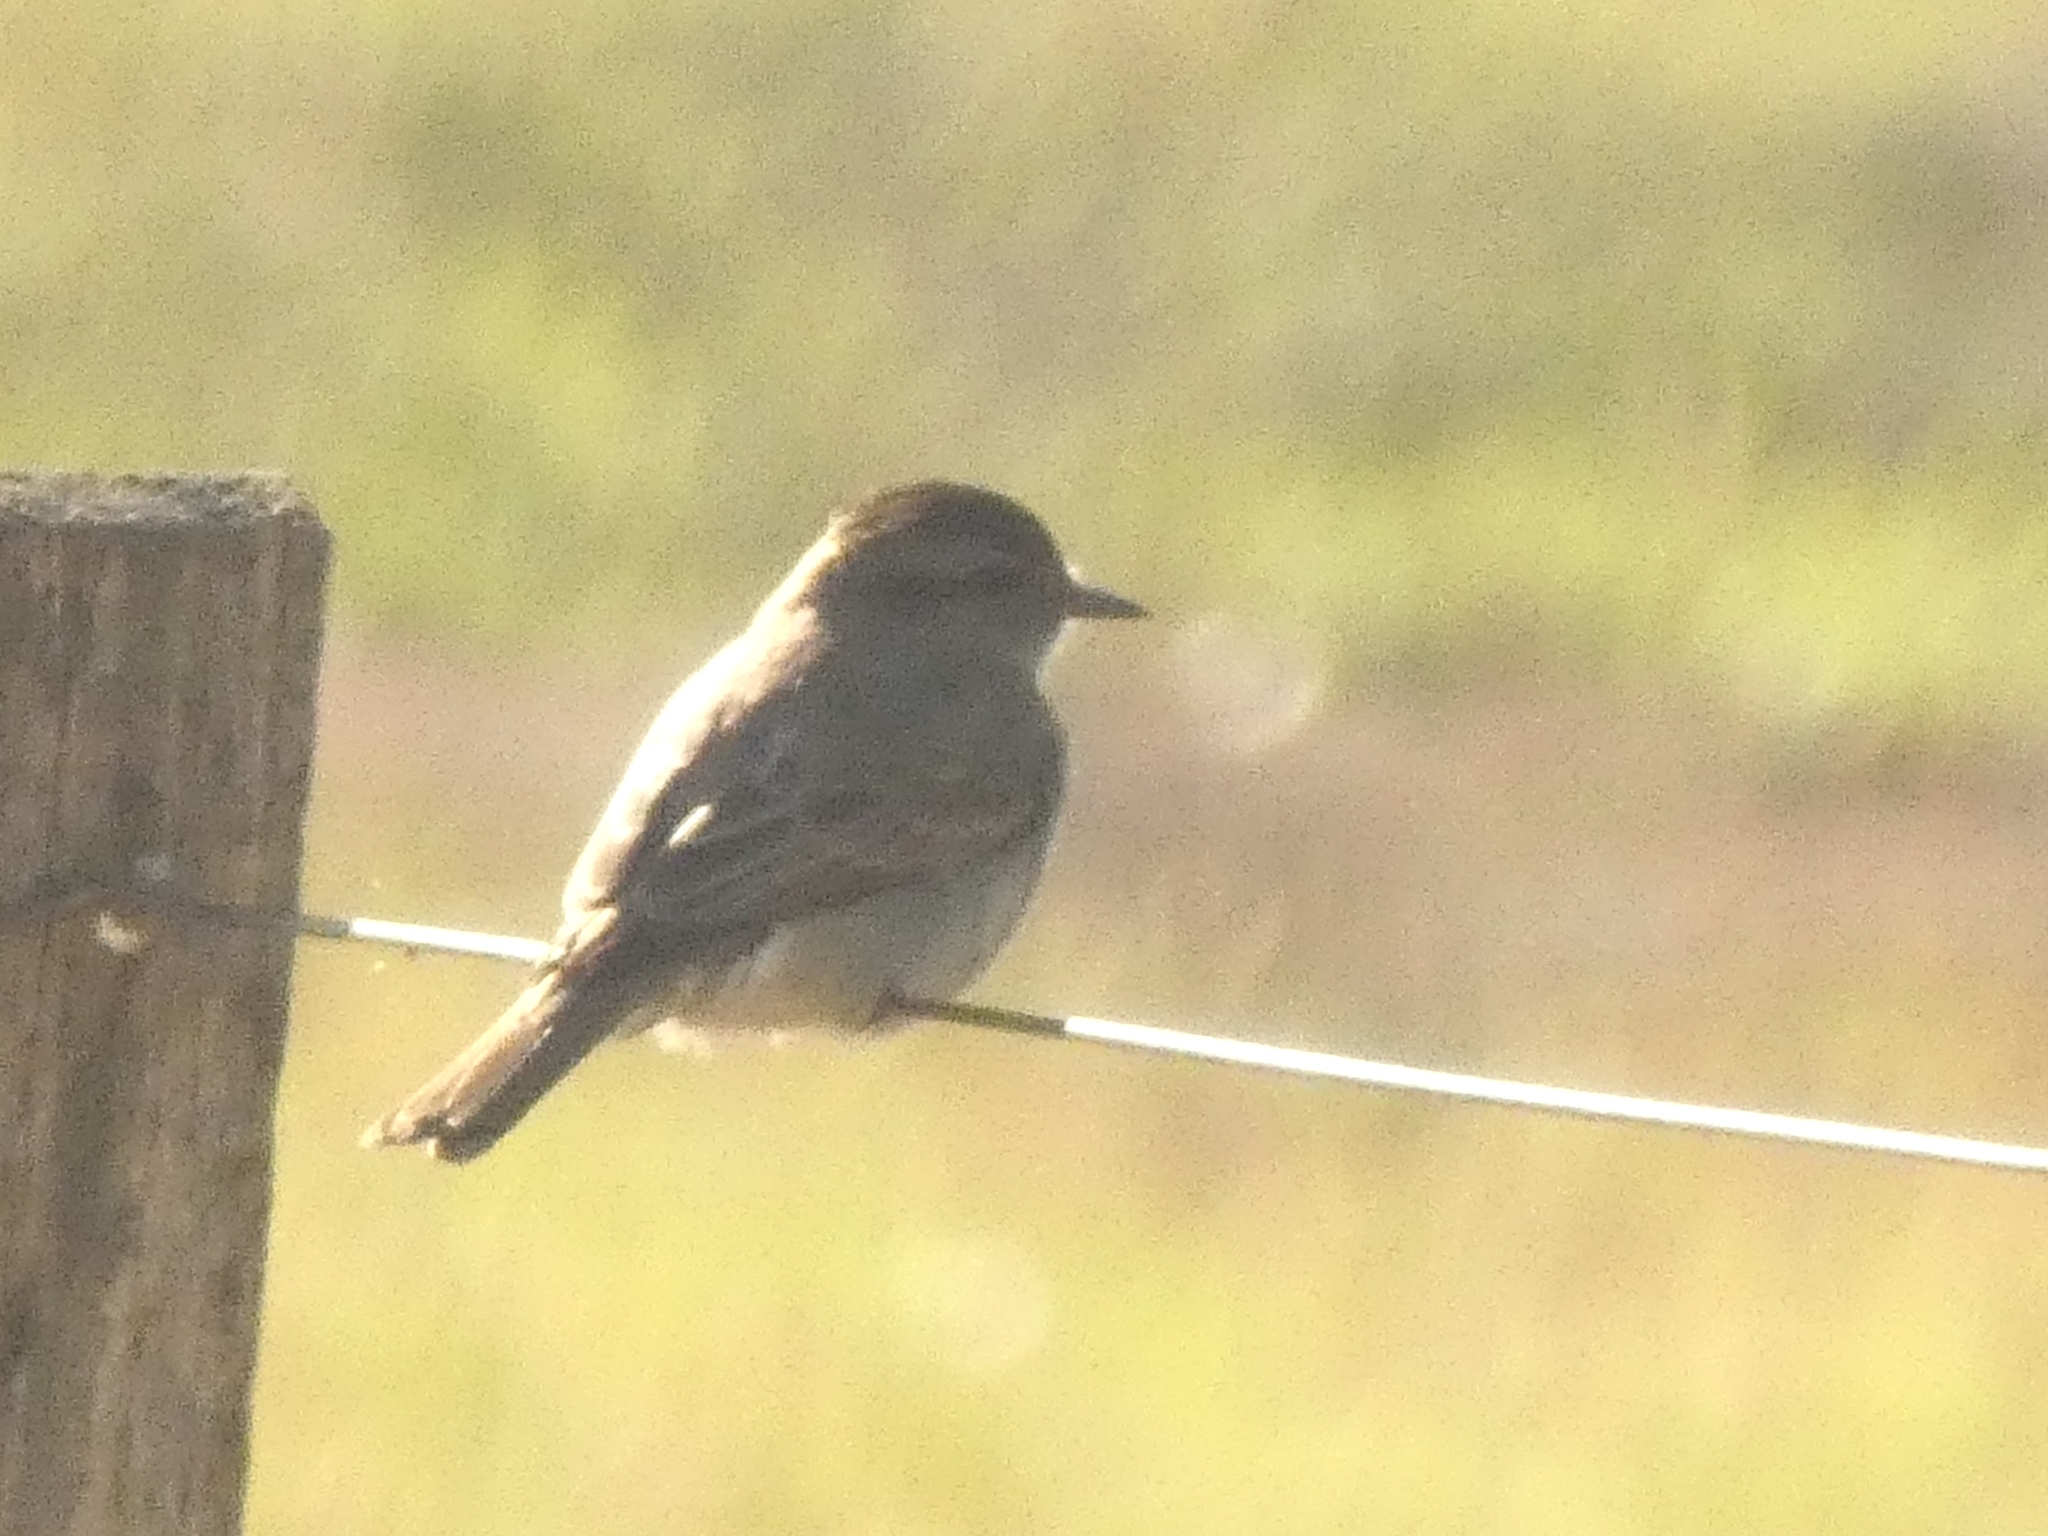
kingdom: Animalia
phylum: Chordata
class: Aves
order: Passeriformes
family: Tyrannidae
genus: Empidonomus
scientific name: Empidonomus aurantioatrocristatus
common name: Crowned slaty flycatcher
